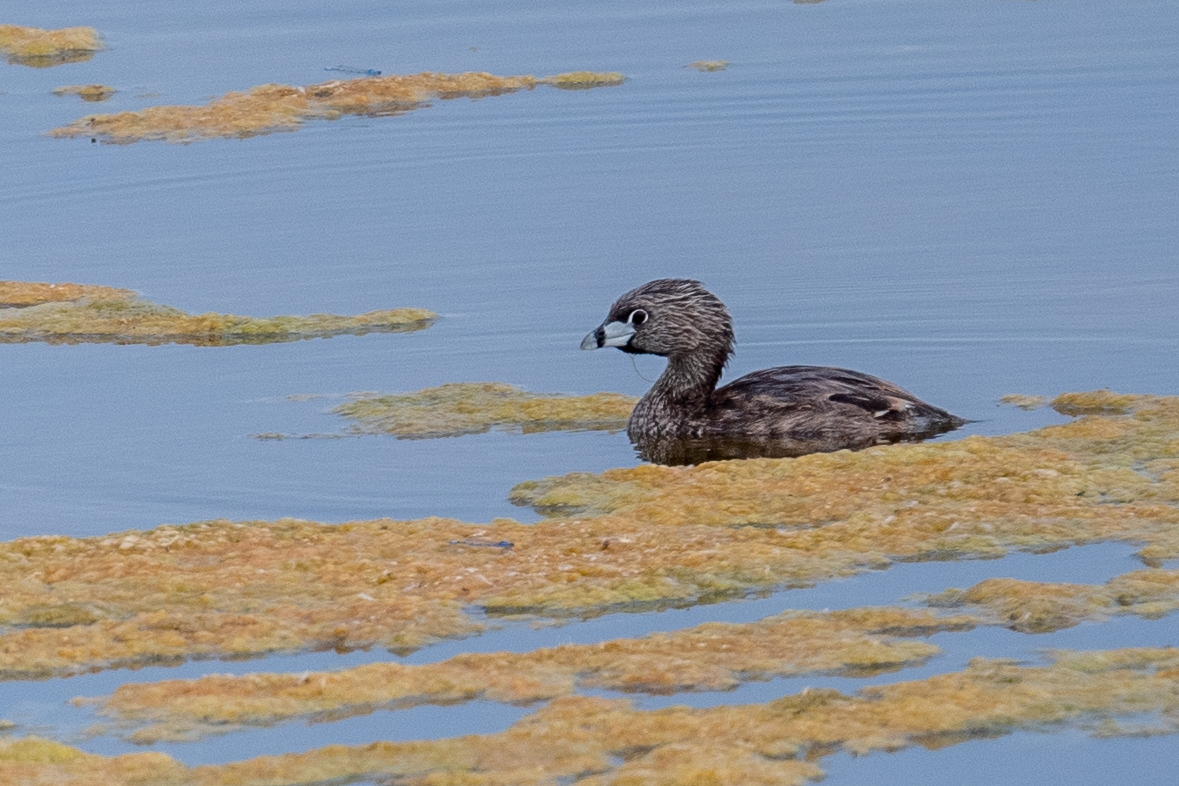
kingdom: Animalia
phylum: Chordata
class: Aves
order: Podicipediformes
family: Podicipedidae
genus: Podilymbus
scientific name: Podilymbus podiceps
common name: Pied-billed grebe
